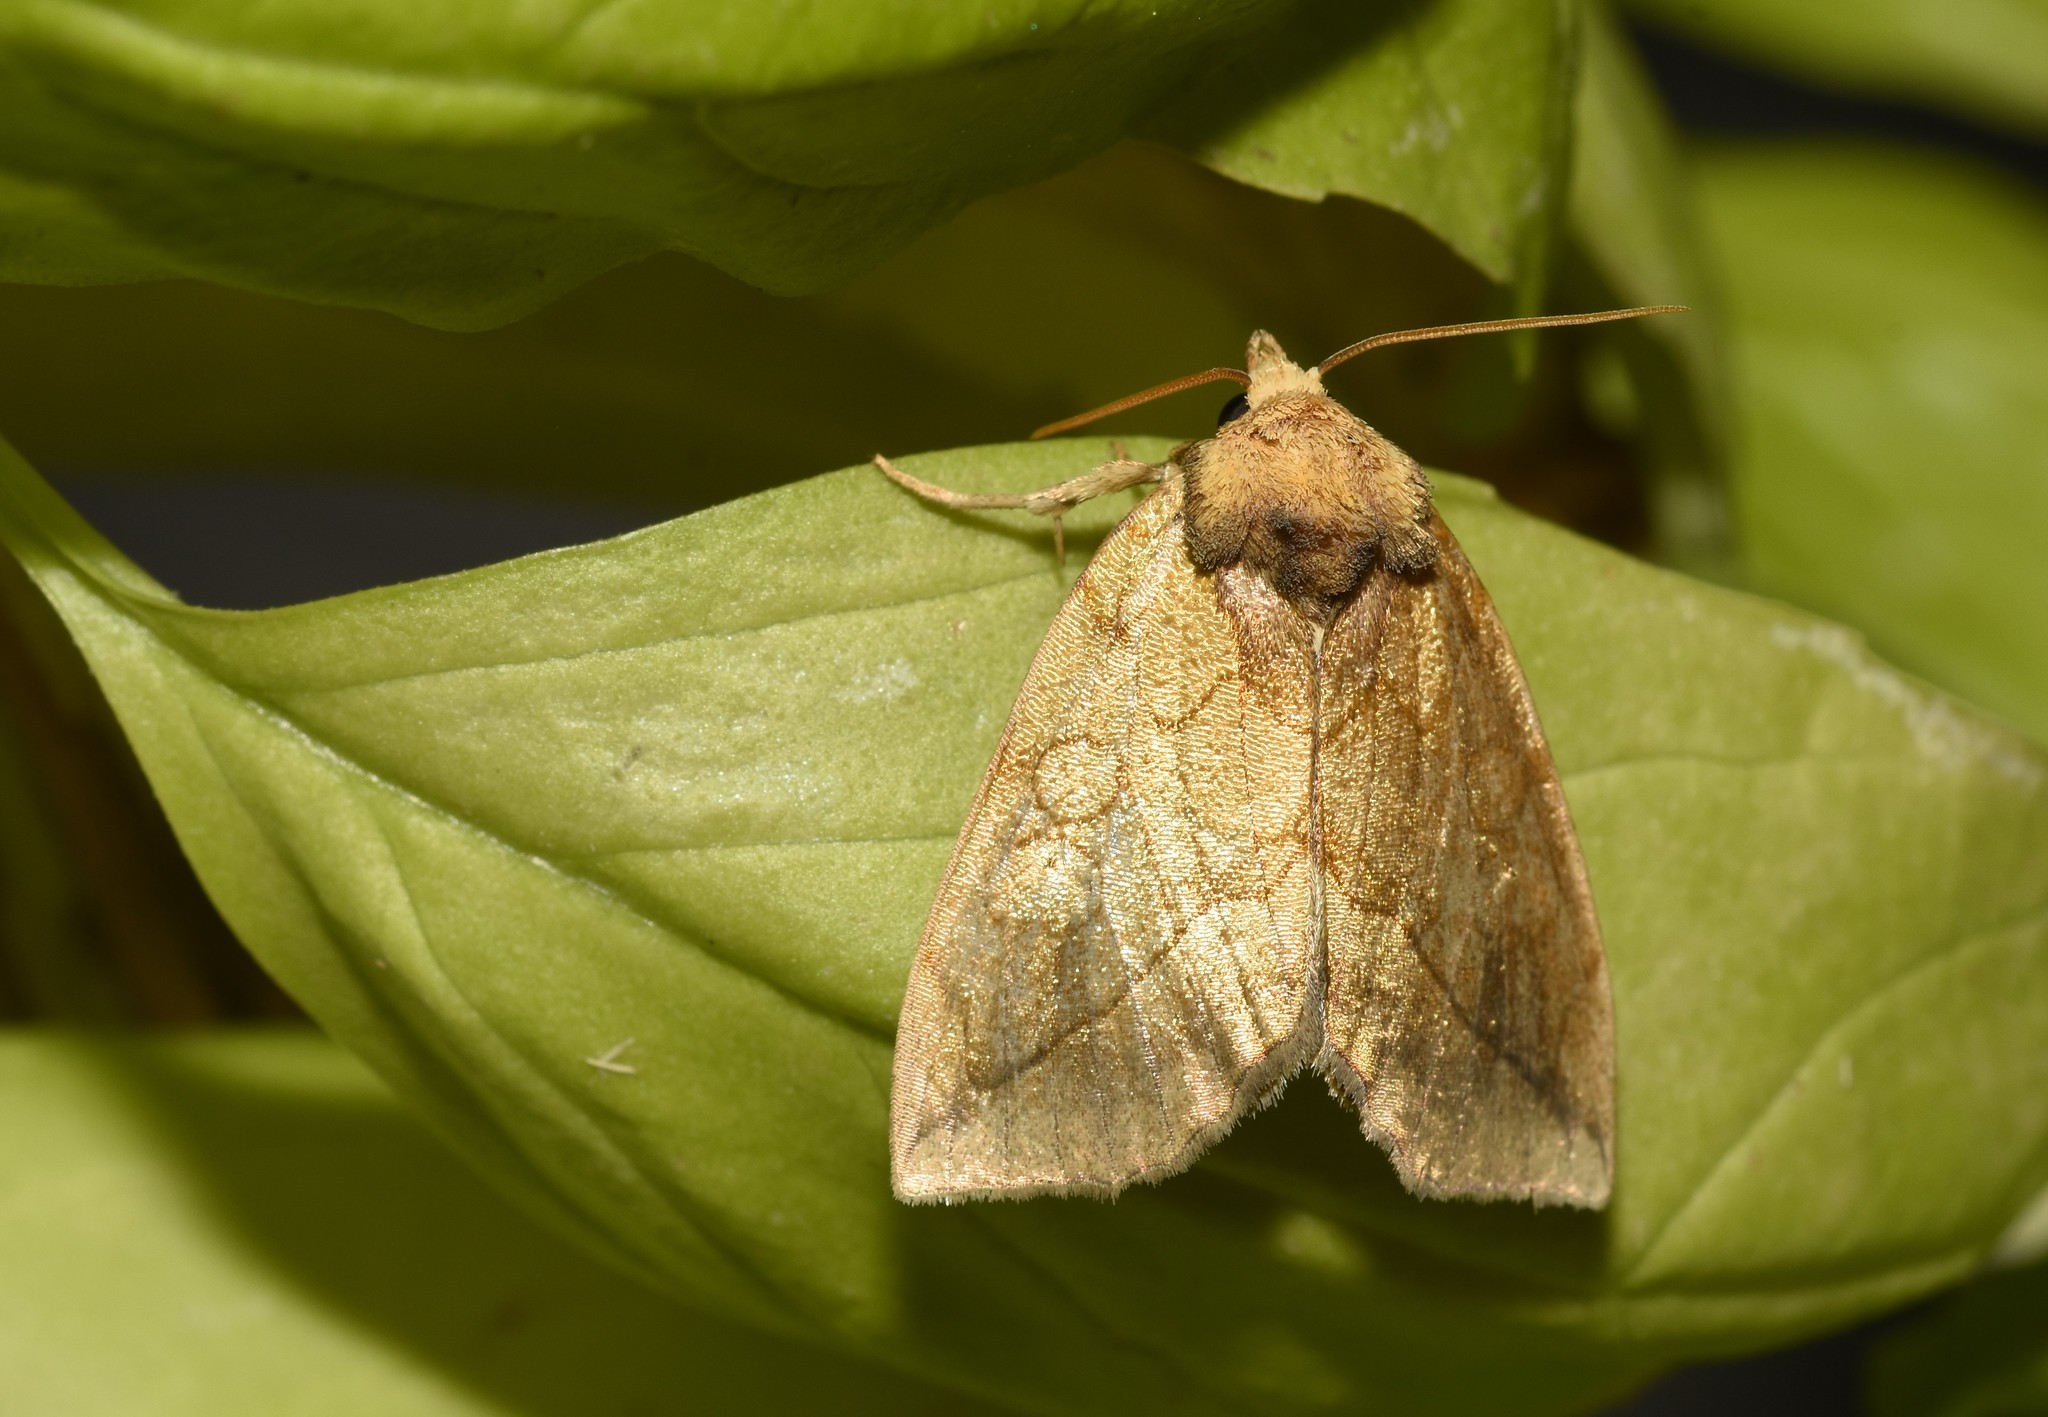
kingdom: Animalia
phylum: Arthropoda
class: Insecta
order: Lepidoptera
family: Noctuidae
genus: Basilodes
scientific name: Basilodes pepita
